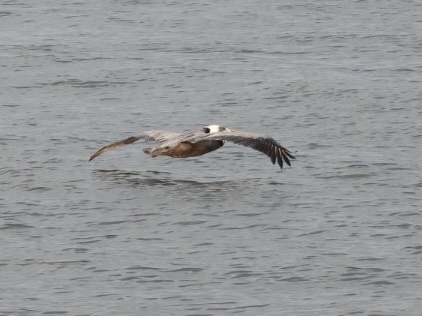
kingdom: Animalia
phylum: Chordata
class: Aves
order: Pelecaniformes
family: Pelecanidae
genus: Pelecanus
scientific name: Pelecanus occidentalis
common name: Brown pelican
